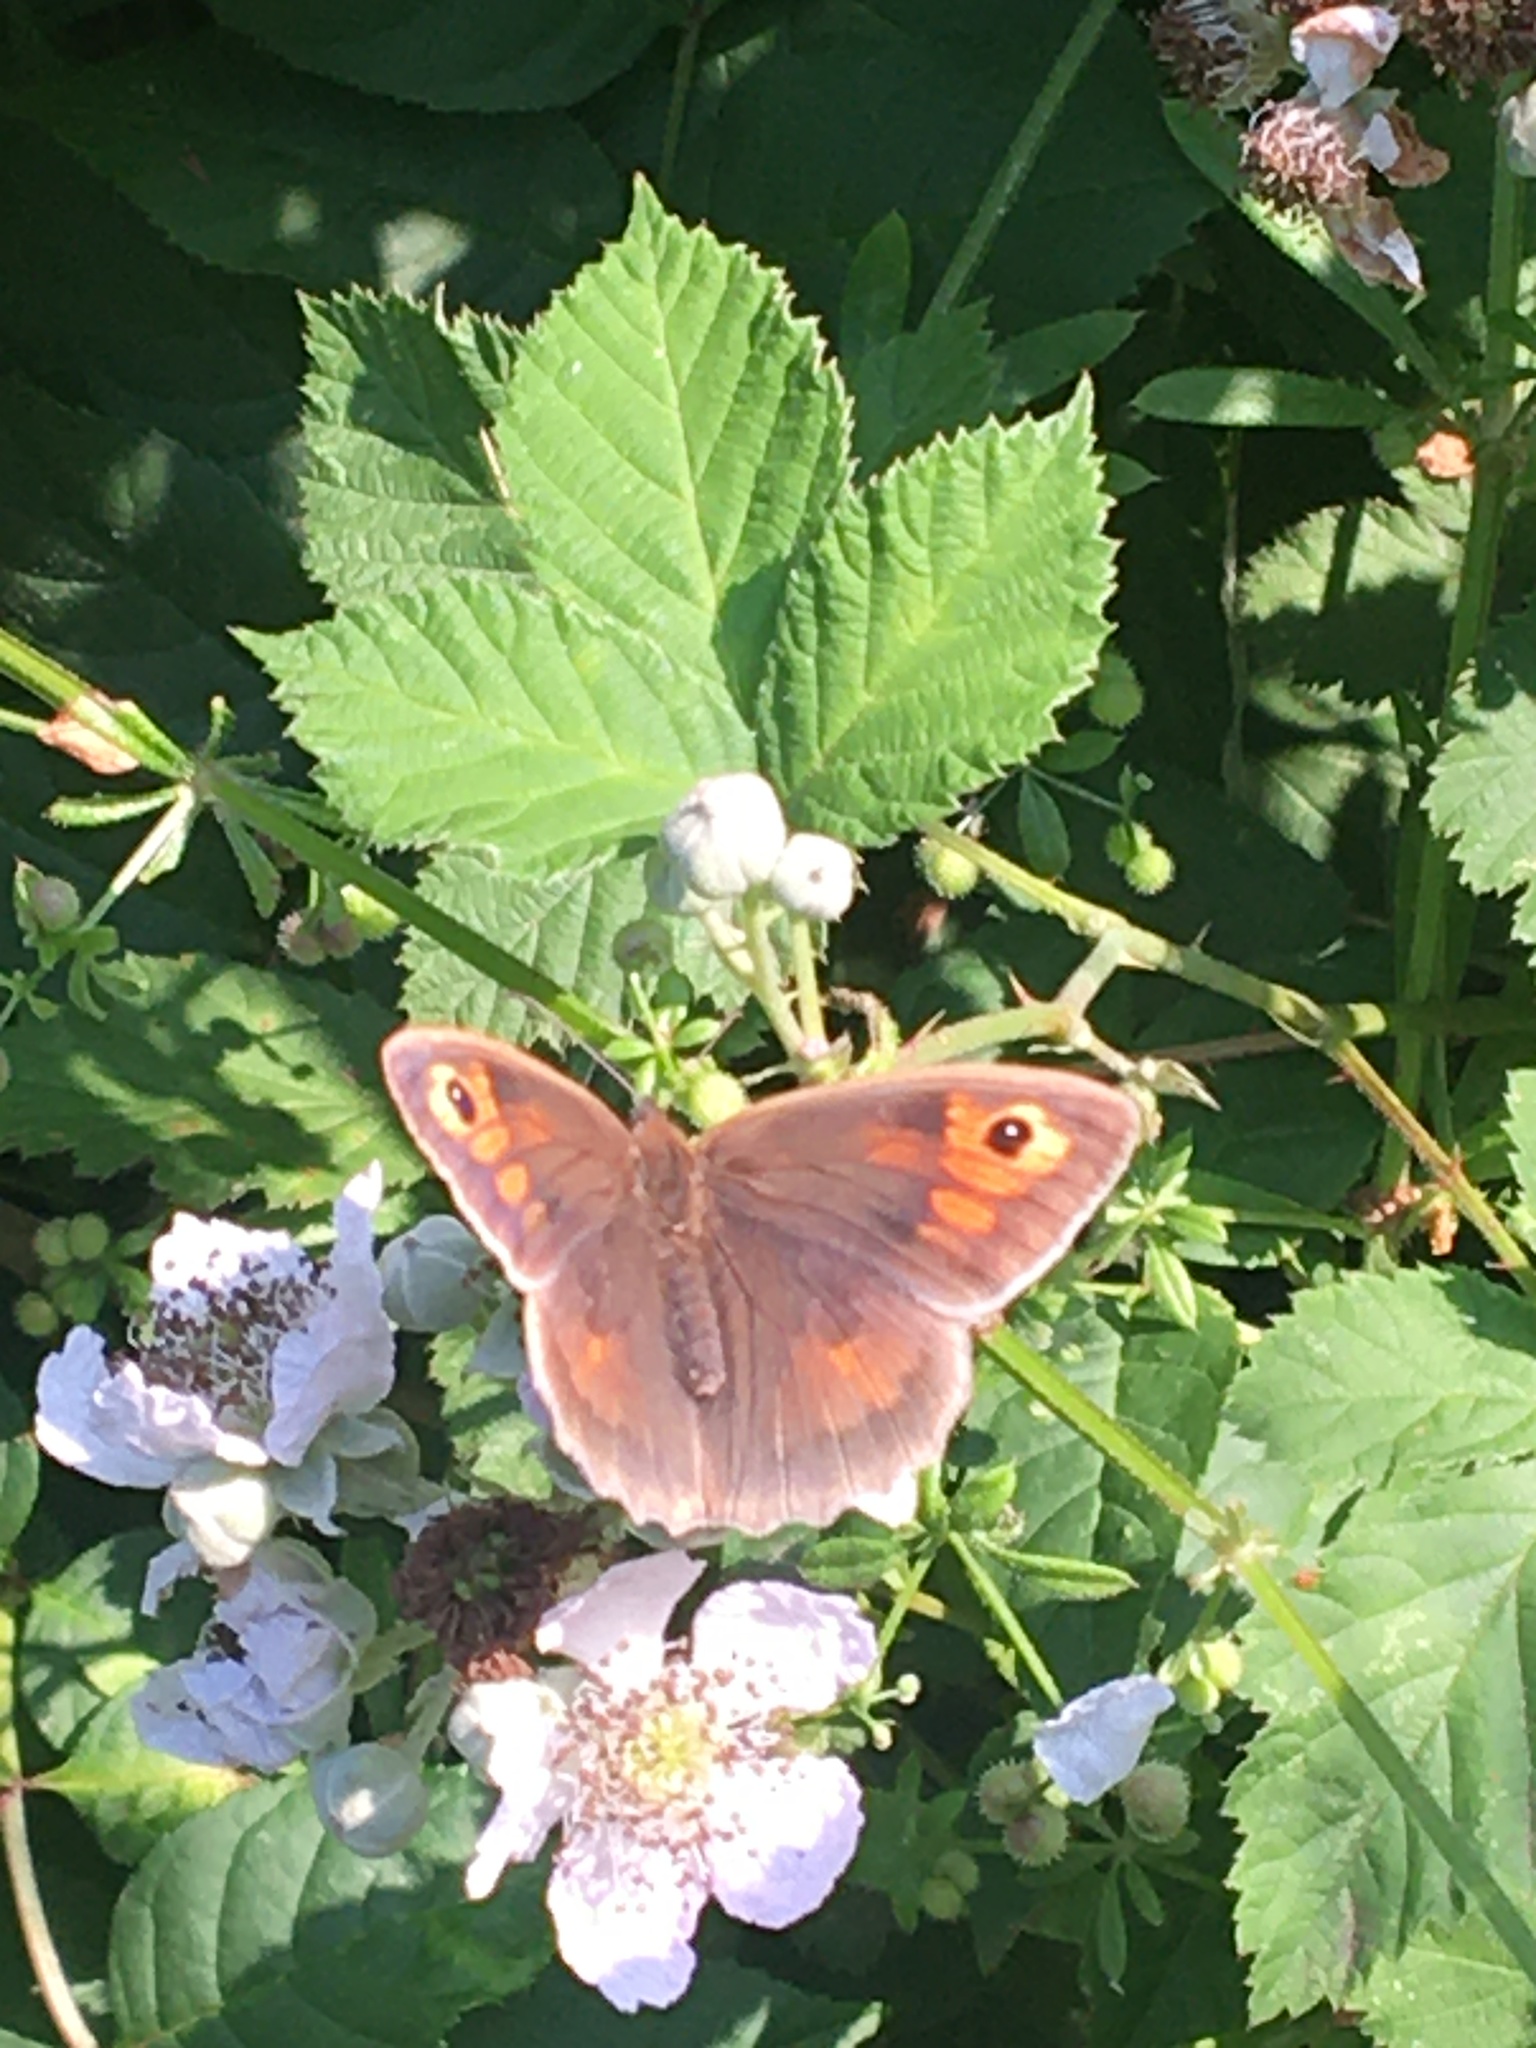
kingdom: Animalia
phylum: Arthropoda
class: Insecta
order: Lepidoptera
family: Nymphalidae
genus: Maniola
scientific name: Maniola jurtina
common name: Meadow brown
